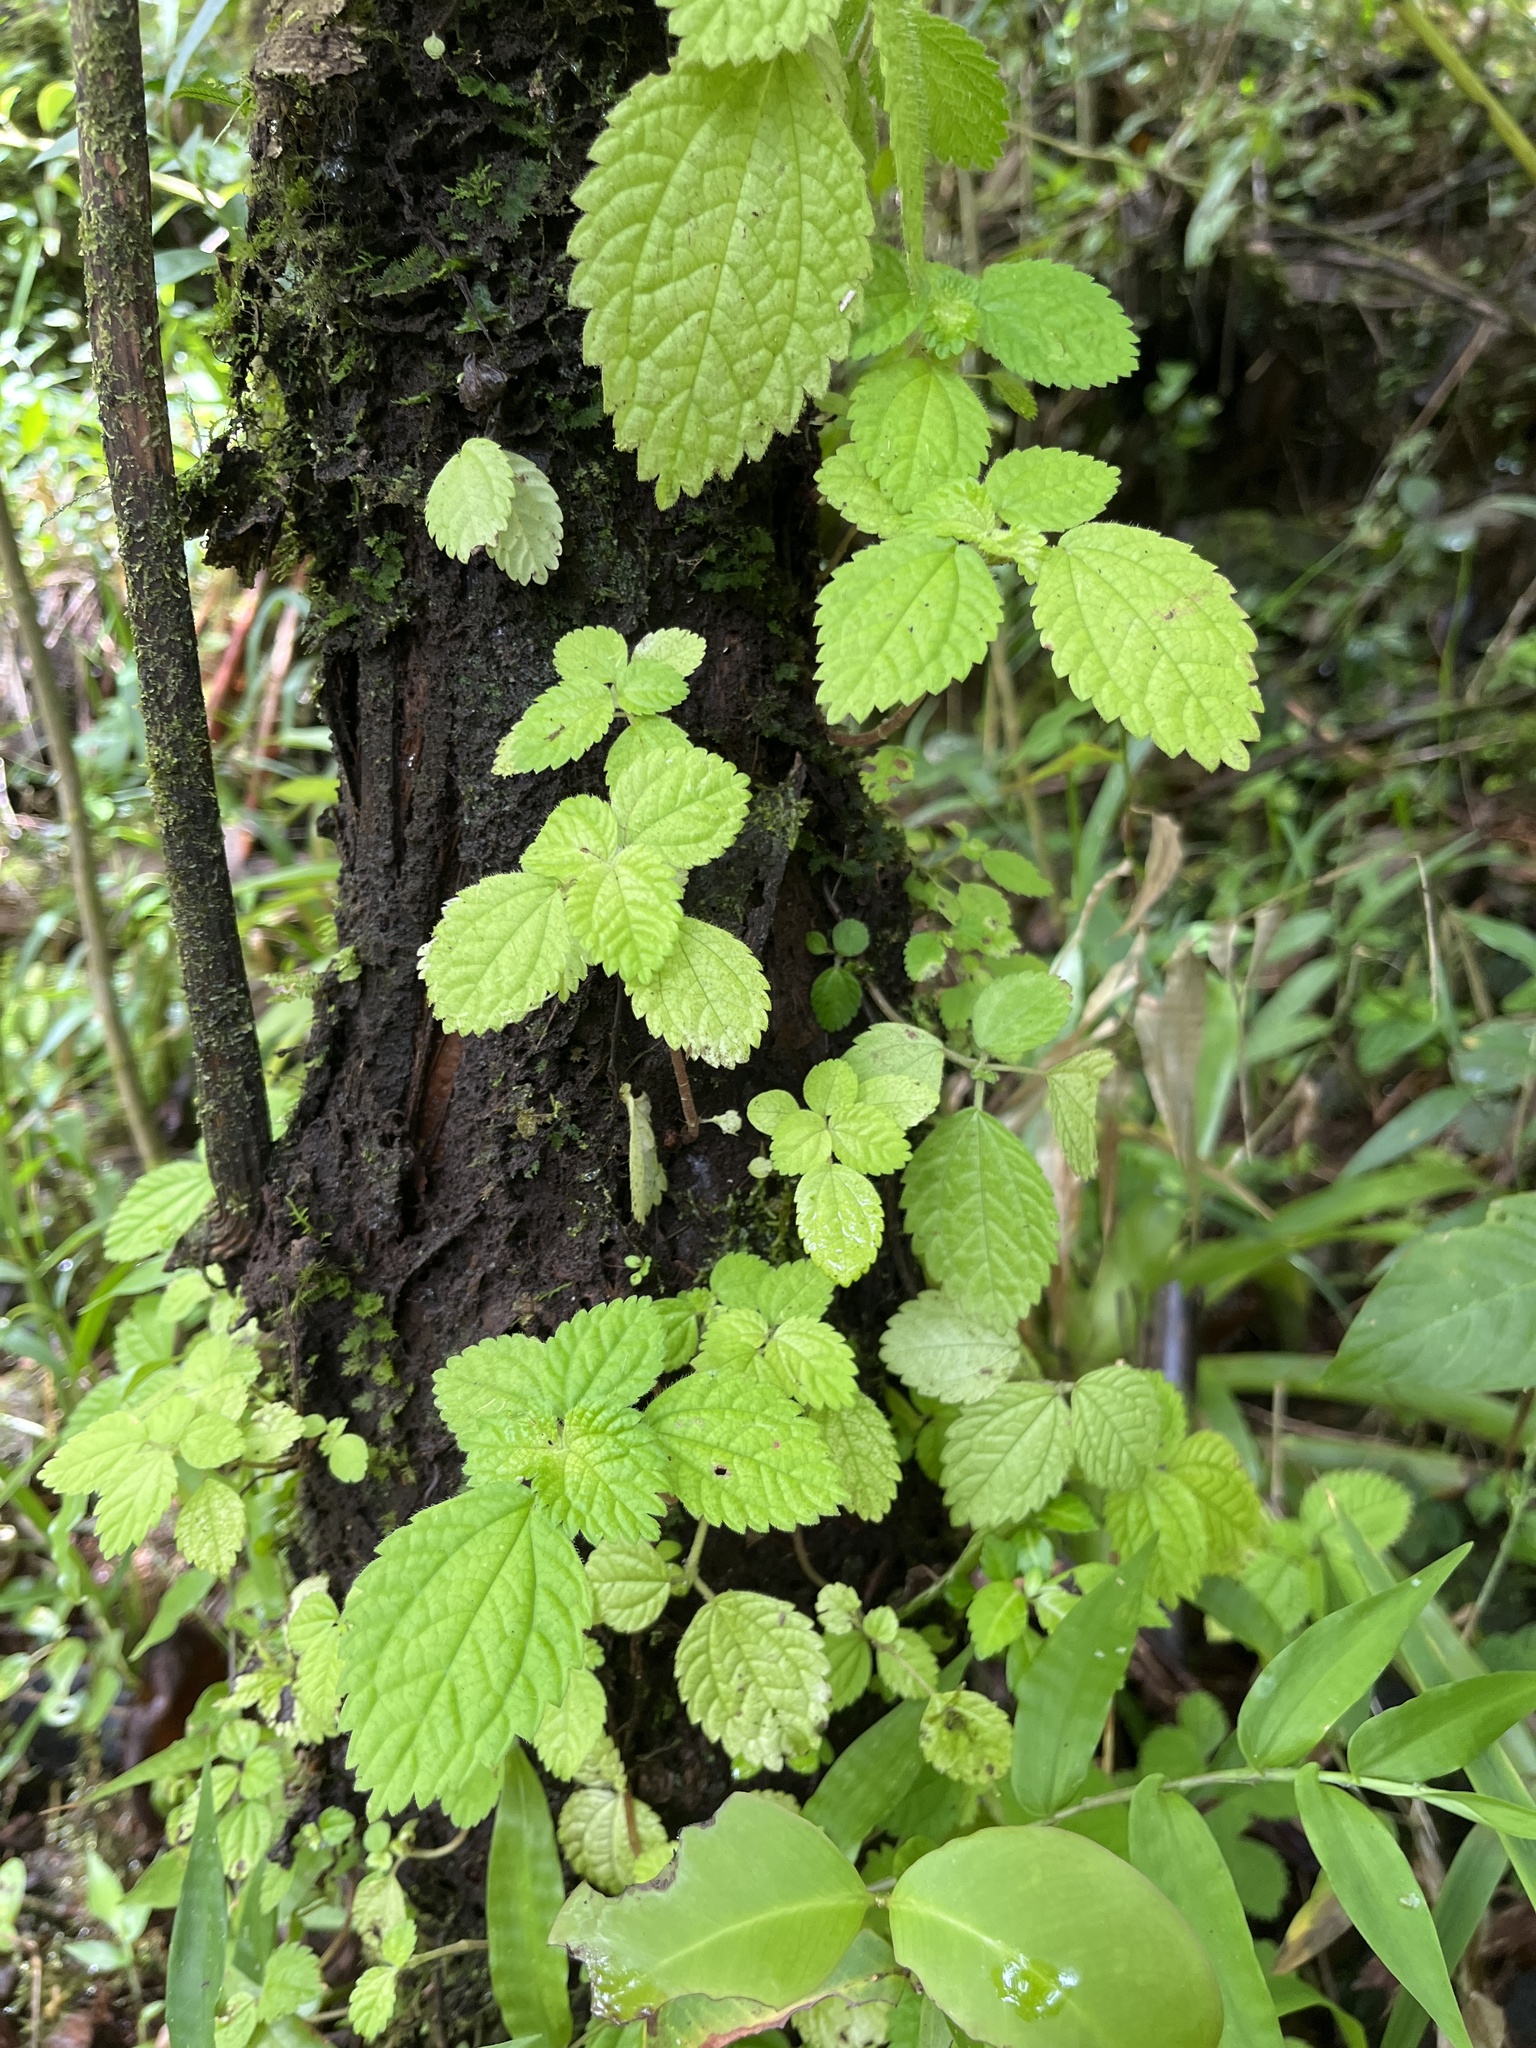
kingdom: Plantae
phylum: Tracheophyta
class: Magnoliopsida
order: Rosales
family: Urticaceae
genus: Pilea
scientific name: Pilea inaequalis
